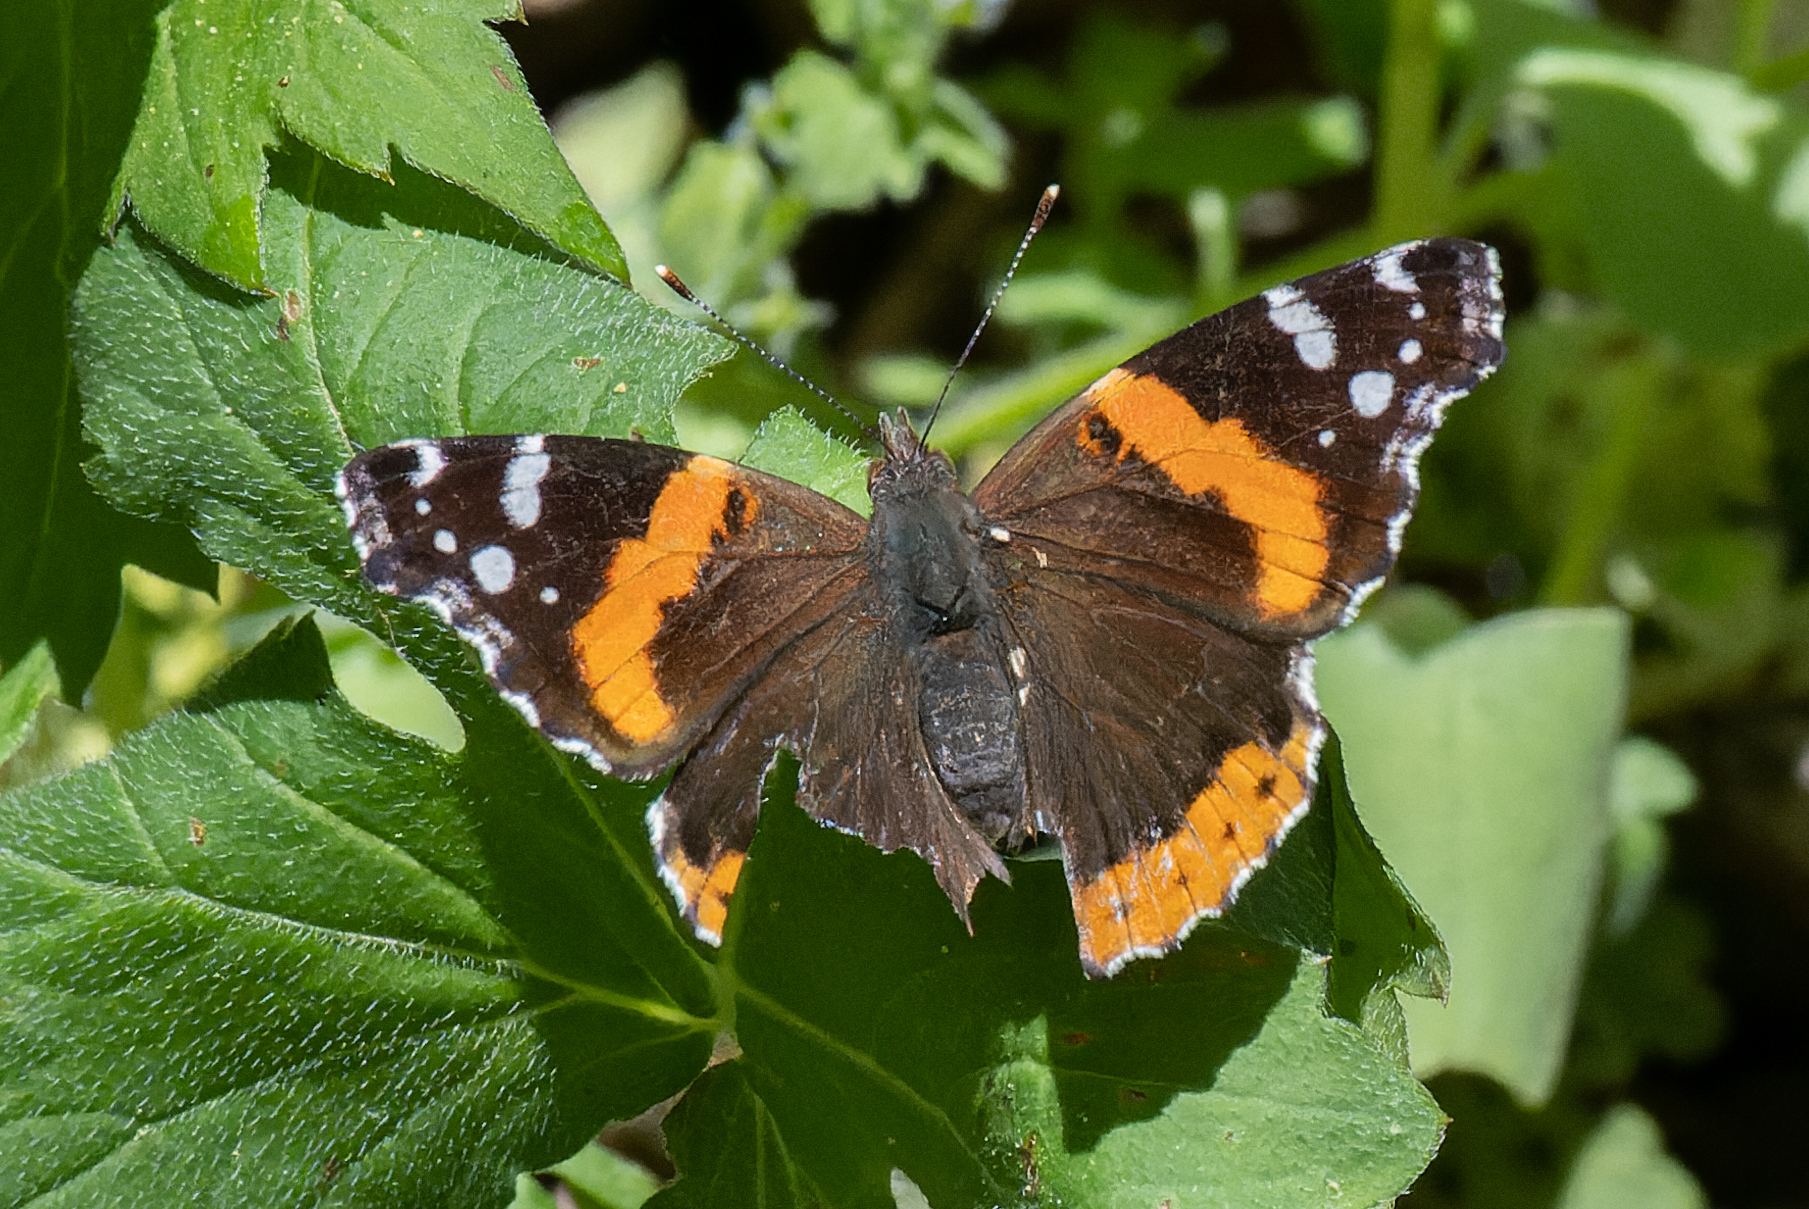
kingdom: Animalia
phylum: Arthropoda
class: Insecta
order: Lepidoptera
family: Nymphalidae
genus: Vanessa
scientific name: Vanessa atalanta
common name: Red admiral
